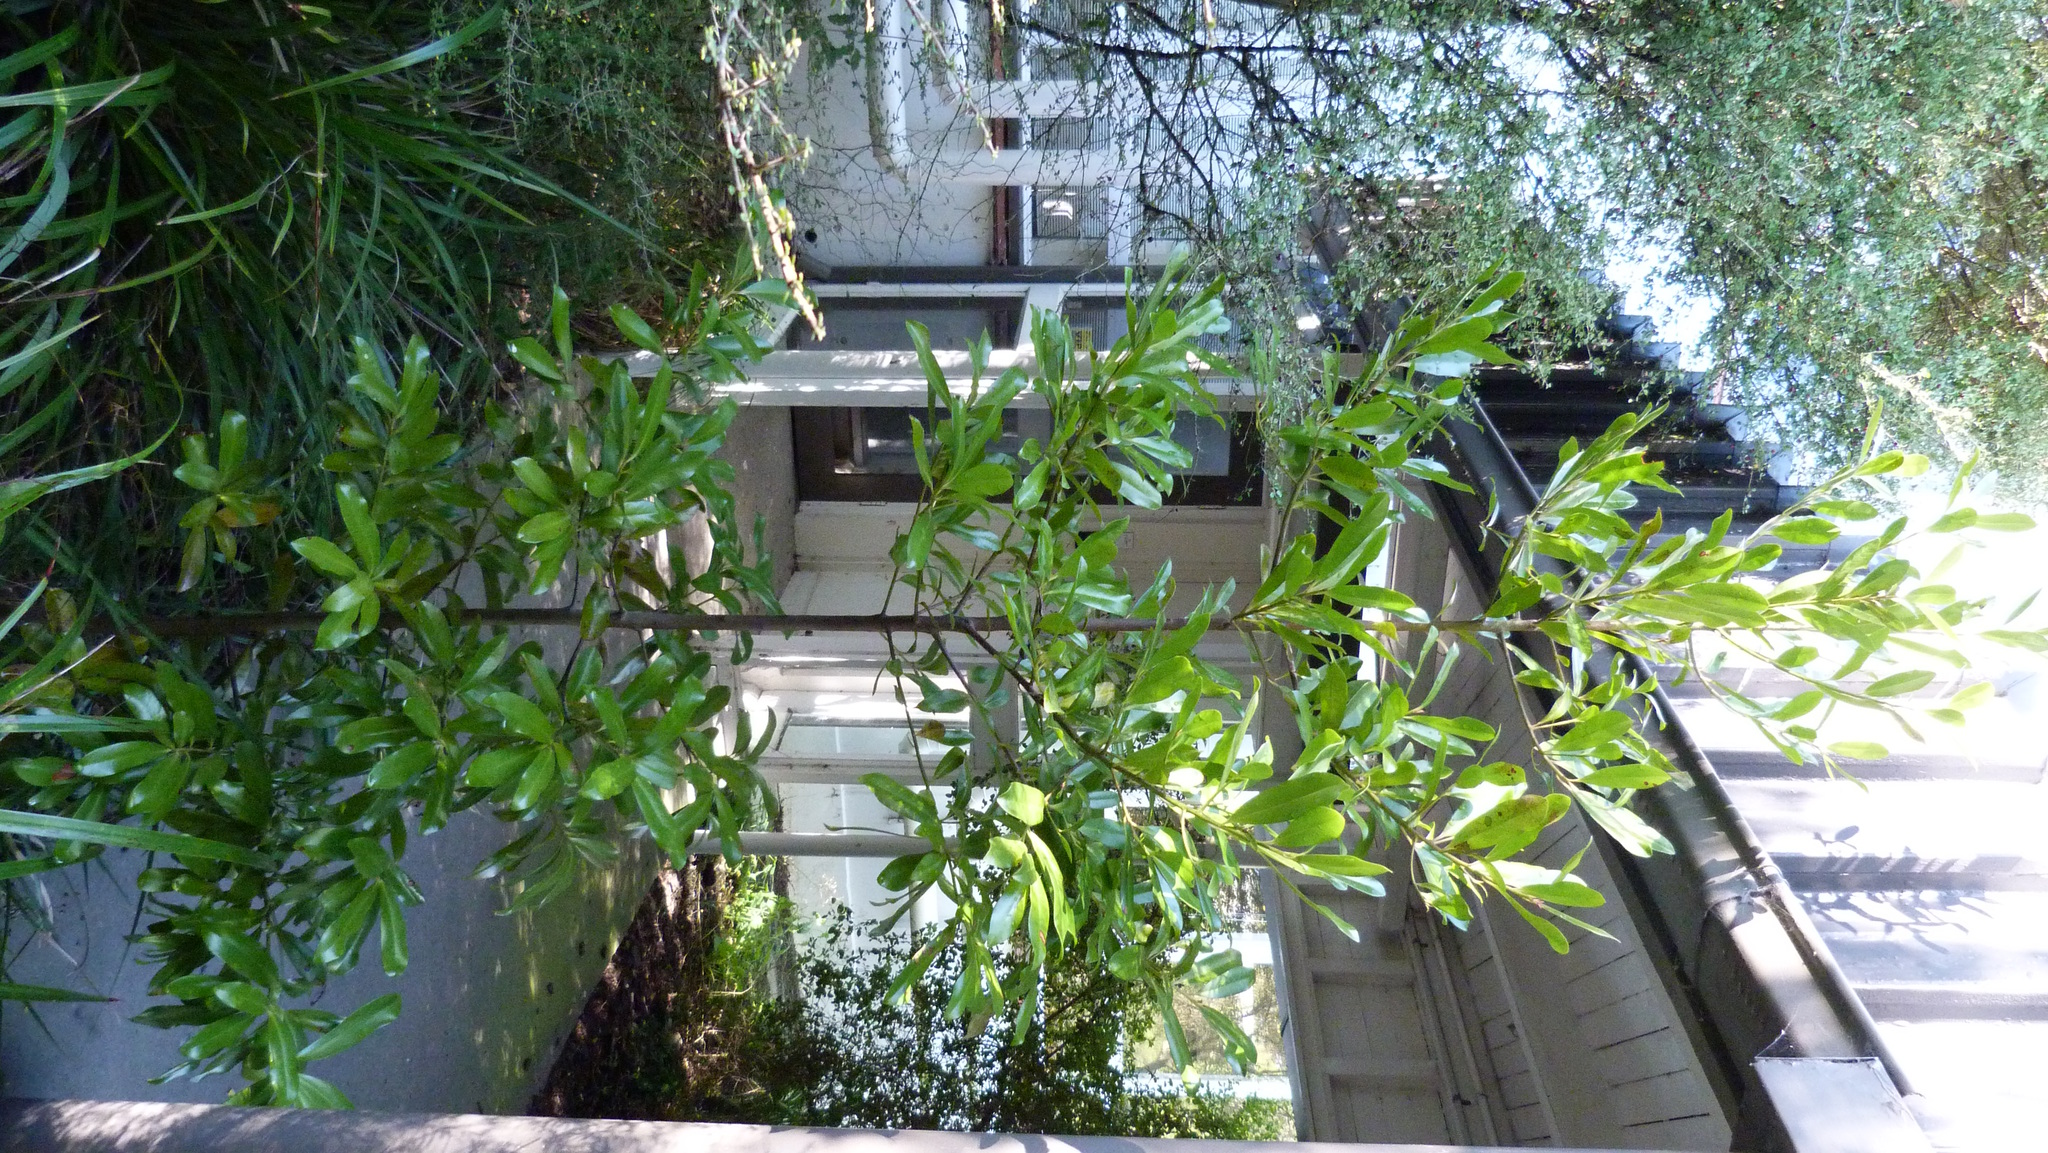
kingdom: Plantae
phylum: Tracheophyta
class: Magnoliopsida
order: Ericales
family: Primulaceae
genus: Myrsine
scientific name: Myrsine salicina
